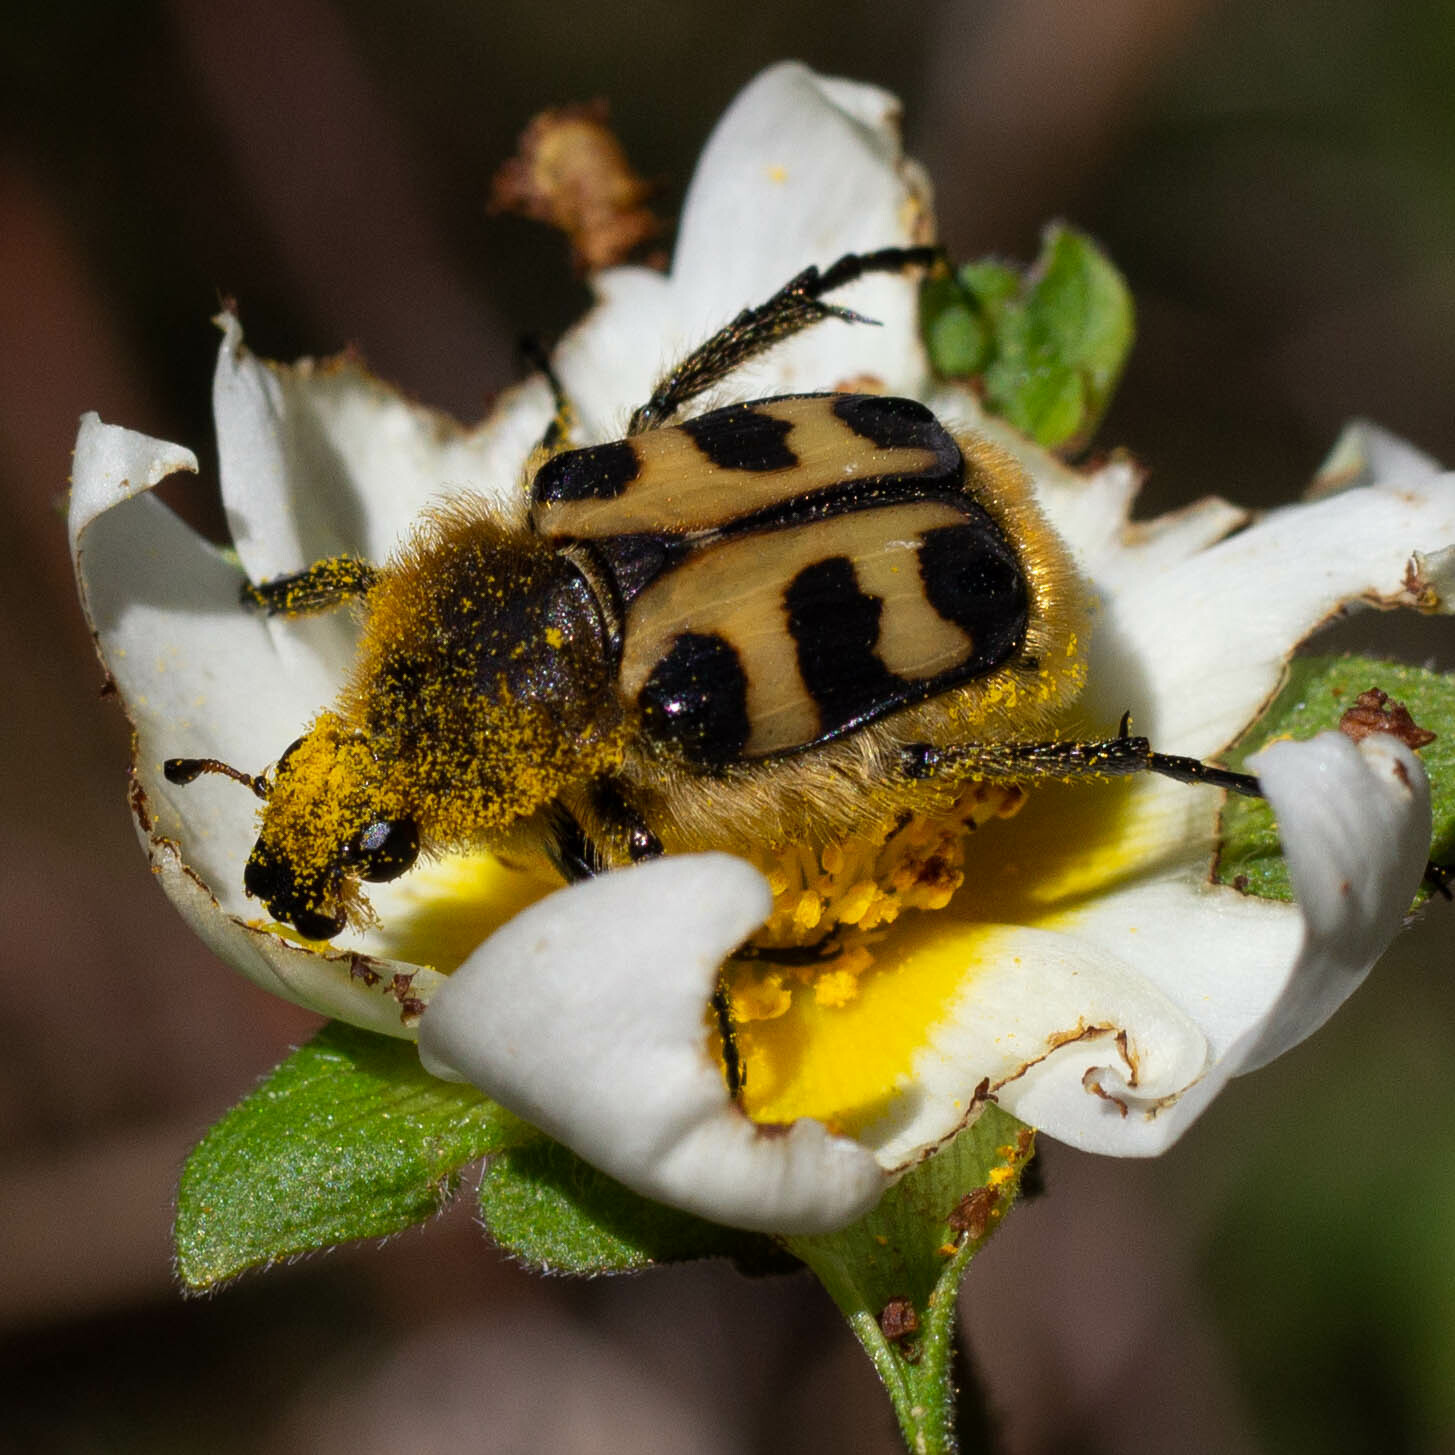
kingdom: Animalia
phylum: Arthropoda
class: Insecta
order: Coleoptera
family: Scarabaeidae
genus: Trichius
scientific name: Trichius gallicus
